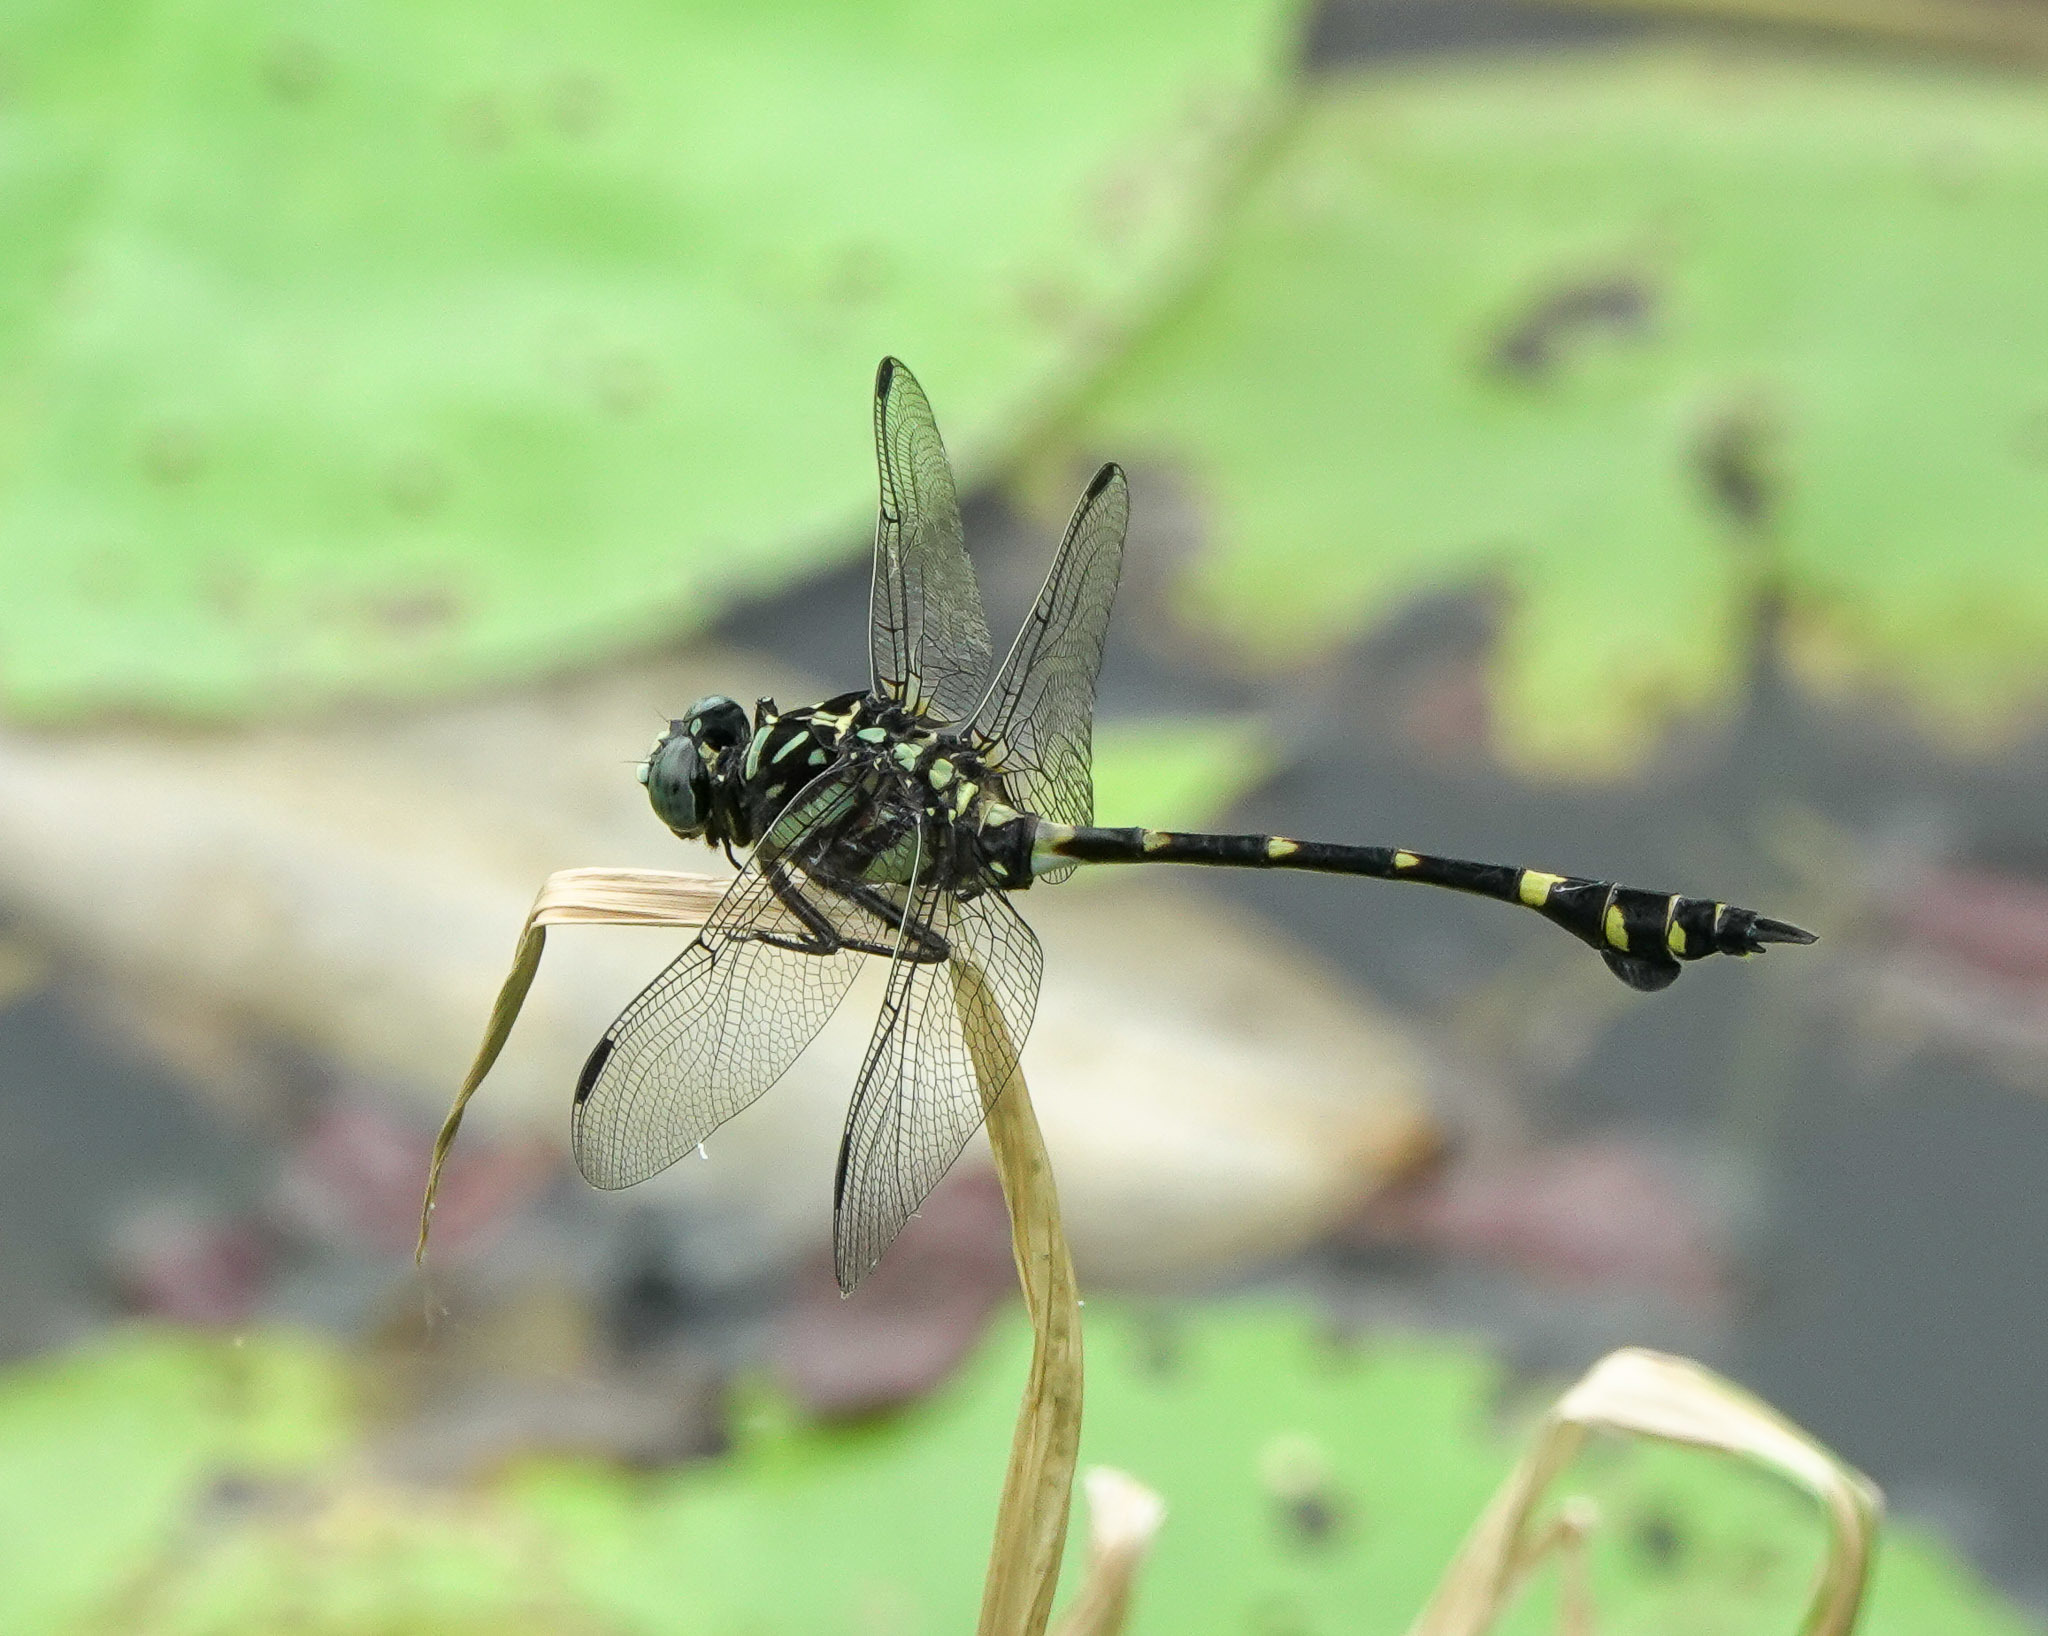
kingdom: Animalia
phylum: Arthropoda
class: Insecta
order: Odonata
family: Gomphidae
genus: Ictinogomphus
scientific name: Ictinogomphus rapax
